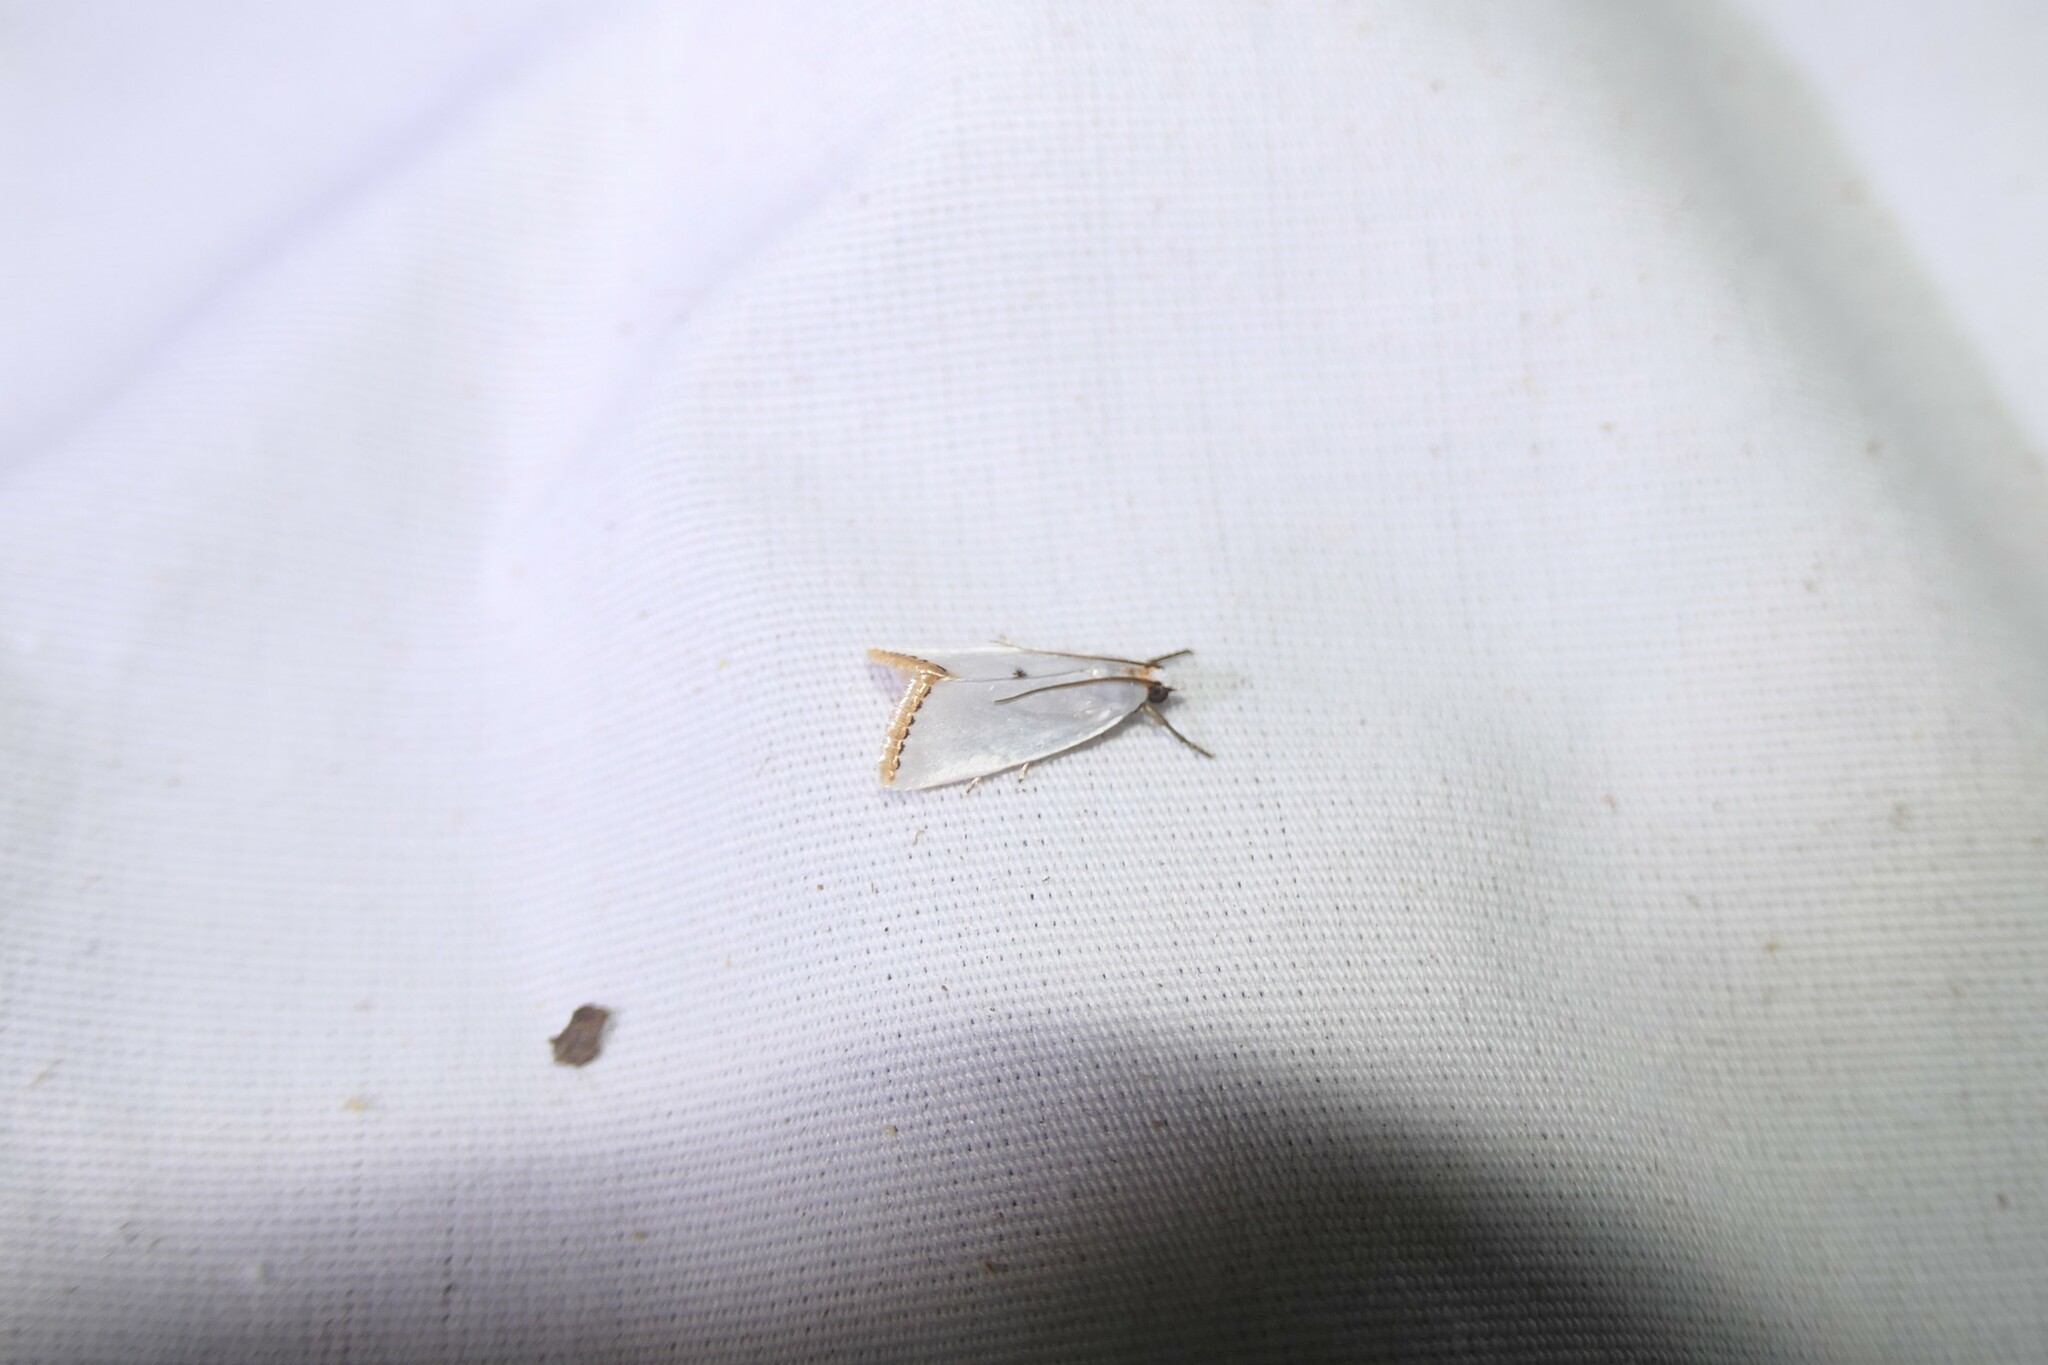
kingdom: Animalia
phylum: Arthropoda
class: Insecta
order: Lepidoptera
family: Crambidae
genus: Argyria
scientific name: Argyria nivalis
